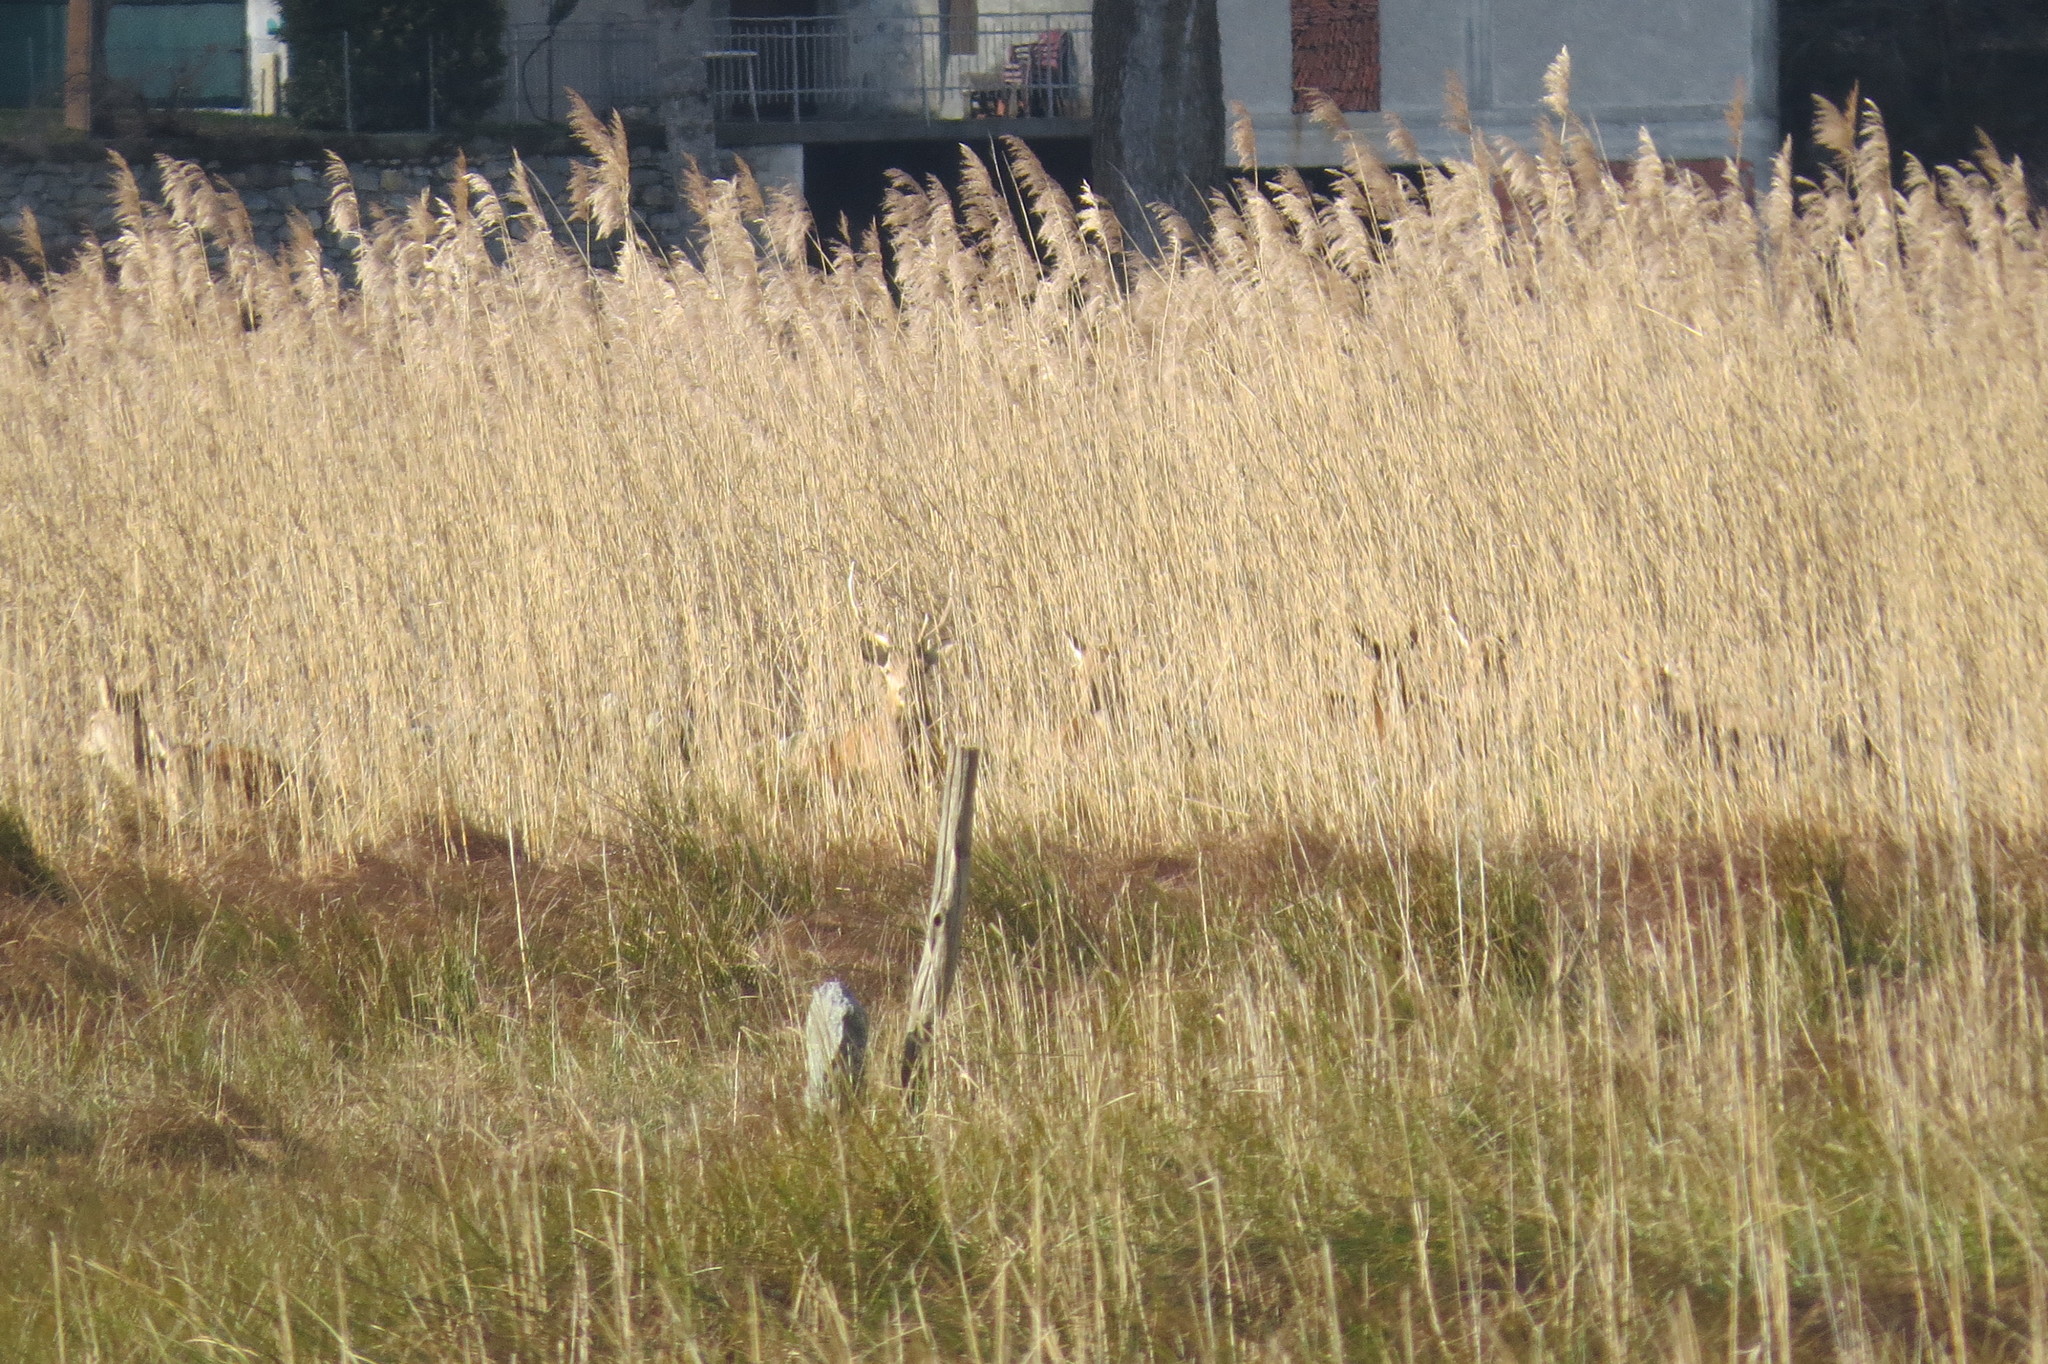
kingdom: Animalia
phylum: Chordata
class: Mammalia
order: Artiodactyla
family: Cervidae
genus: Cervus
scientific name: Cervus elaphus
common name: Red deer
